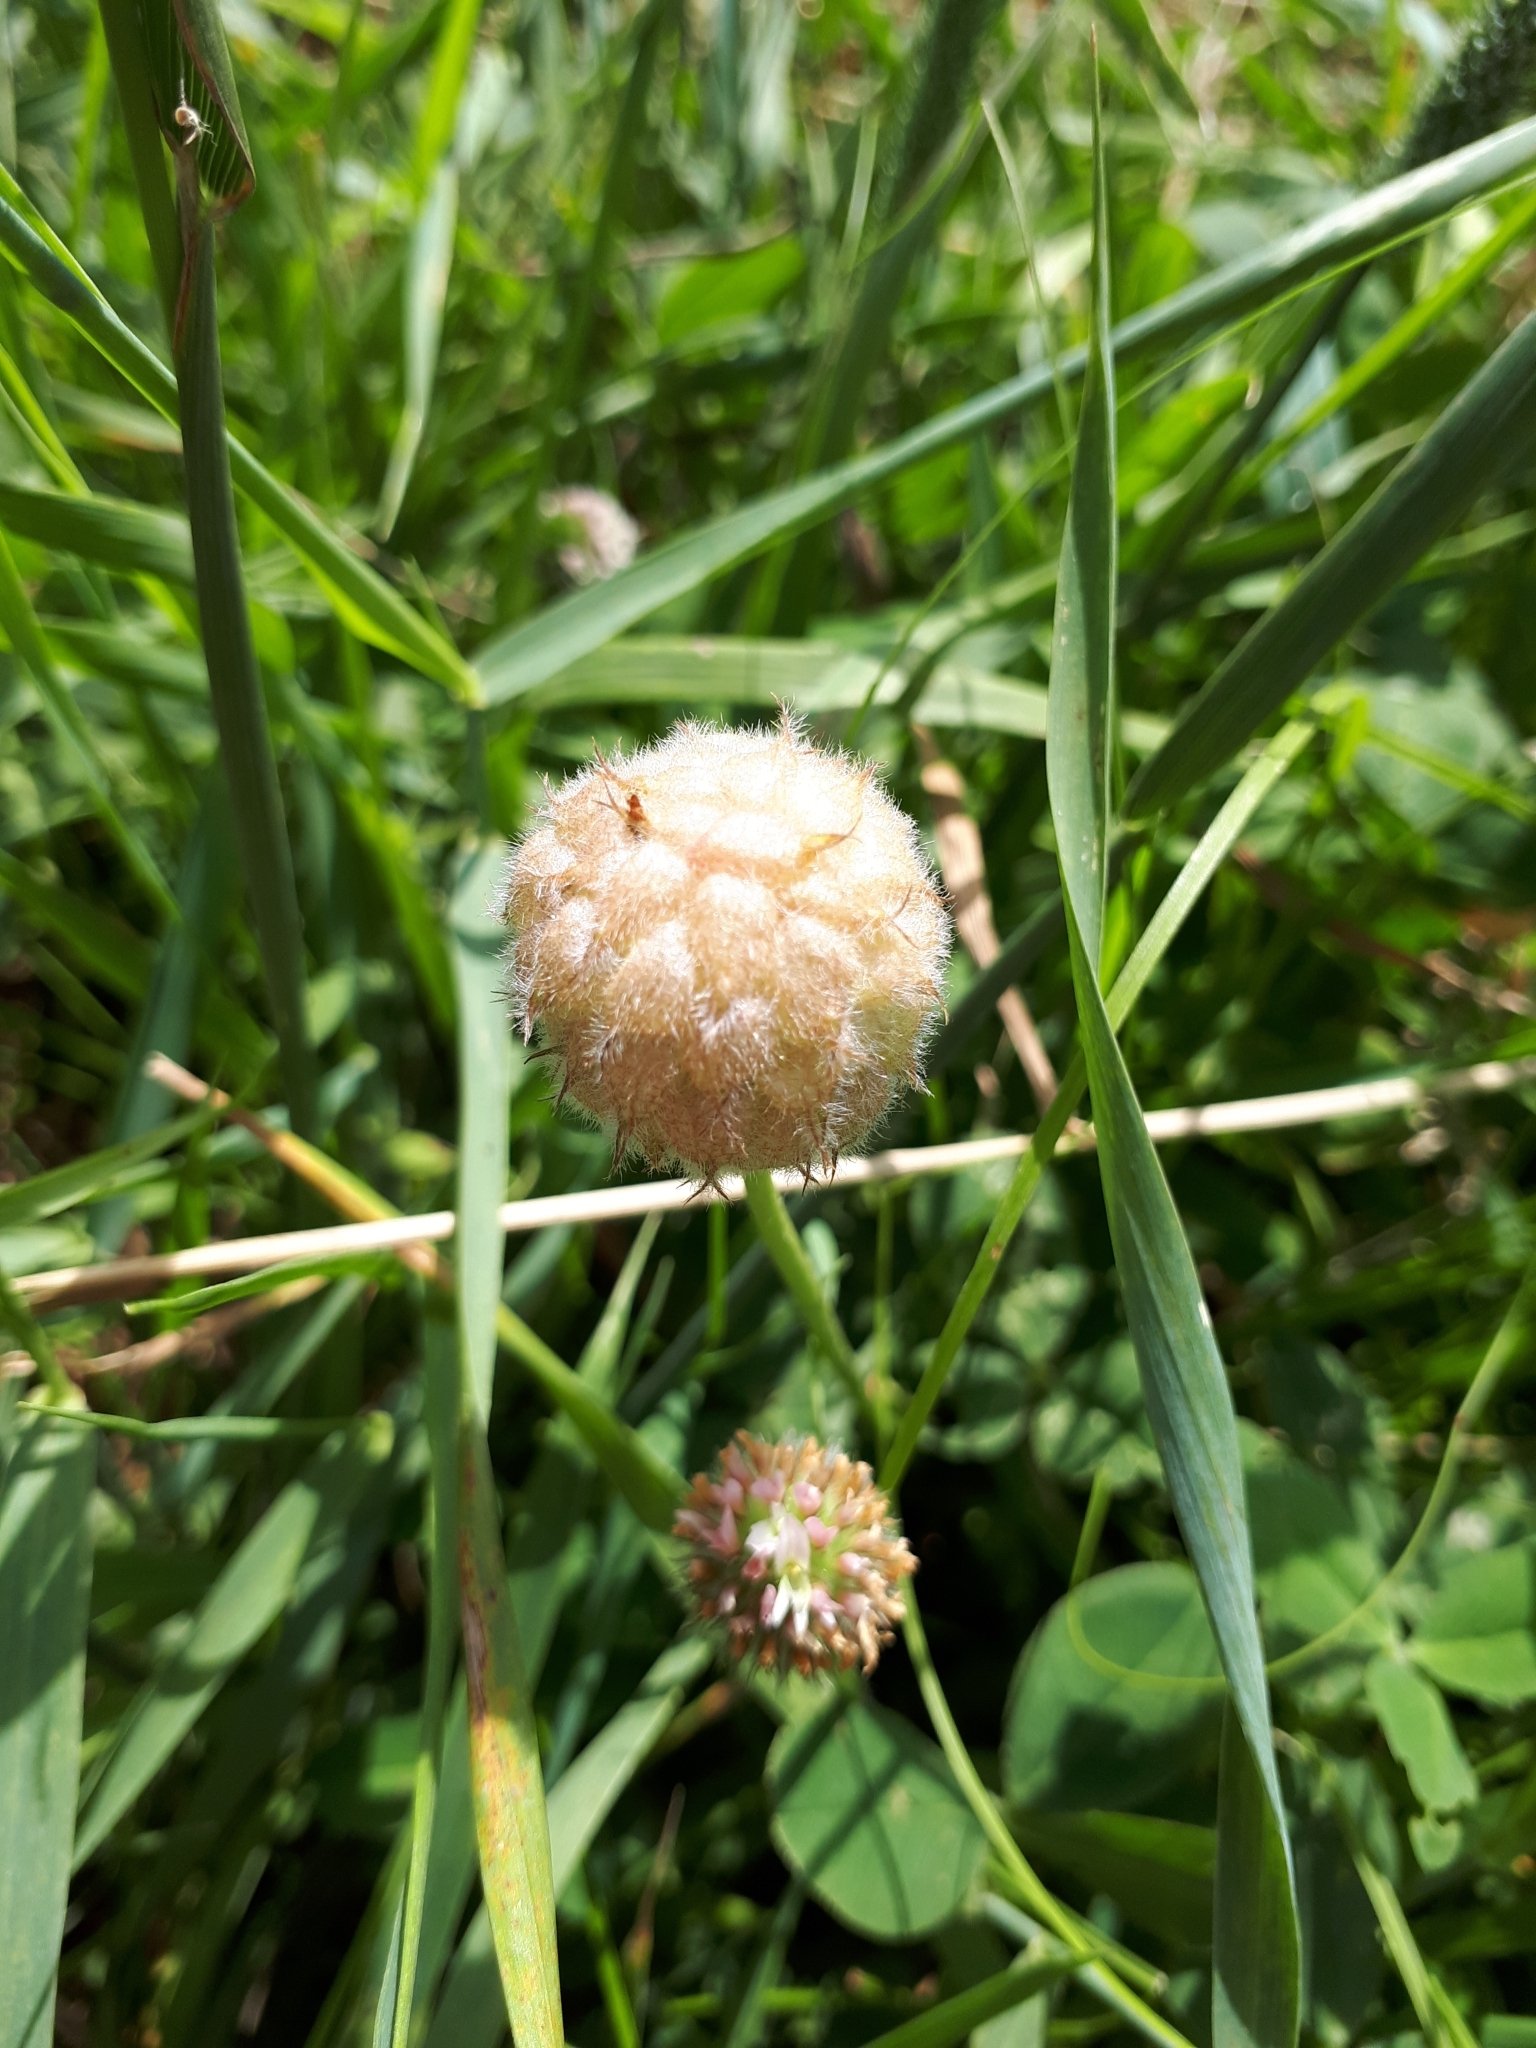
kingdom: Plantae
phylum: Tracheophyta
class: Magnoliopsida
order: Fabales
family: Fabaceae
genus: Trifolium
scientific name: Trifolium fragiferum
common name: Strawberry clover
